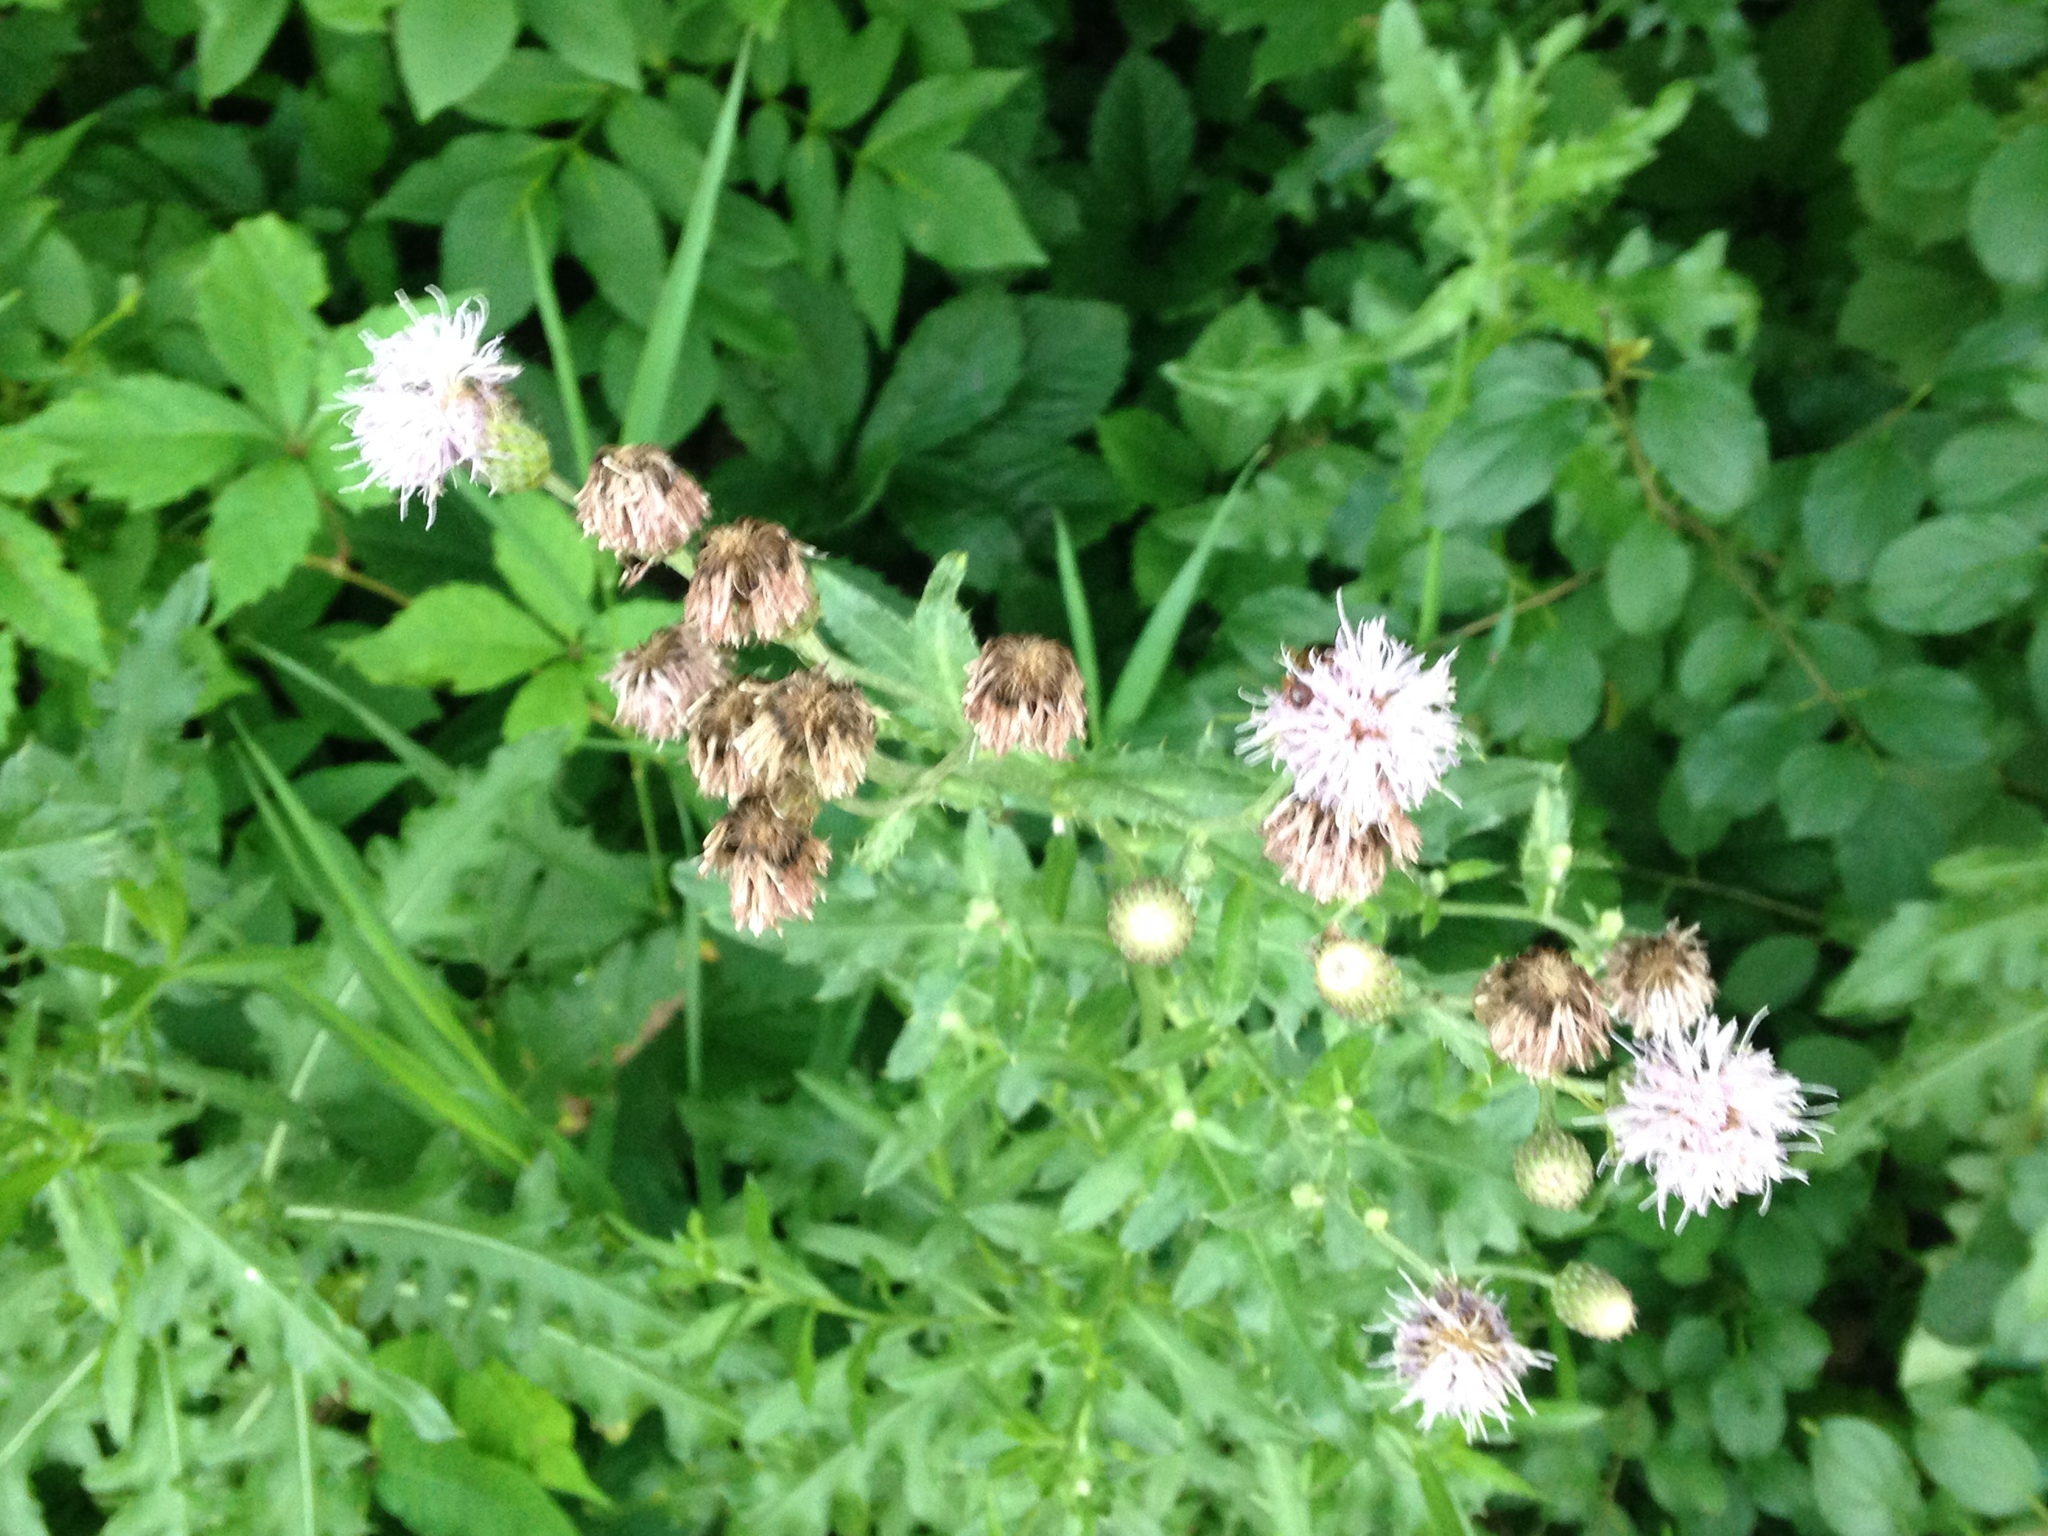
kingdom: Plantae
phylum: Tracheophyta
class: Magnoliopsida
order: Asterales
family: Asteraceae
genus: Cirsium
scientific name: Cirsium arvense
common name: Creeping thistle
